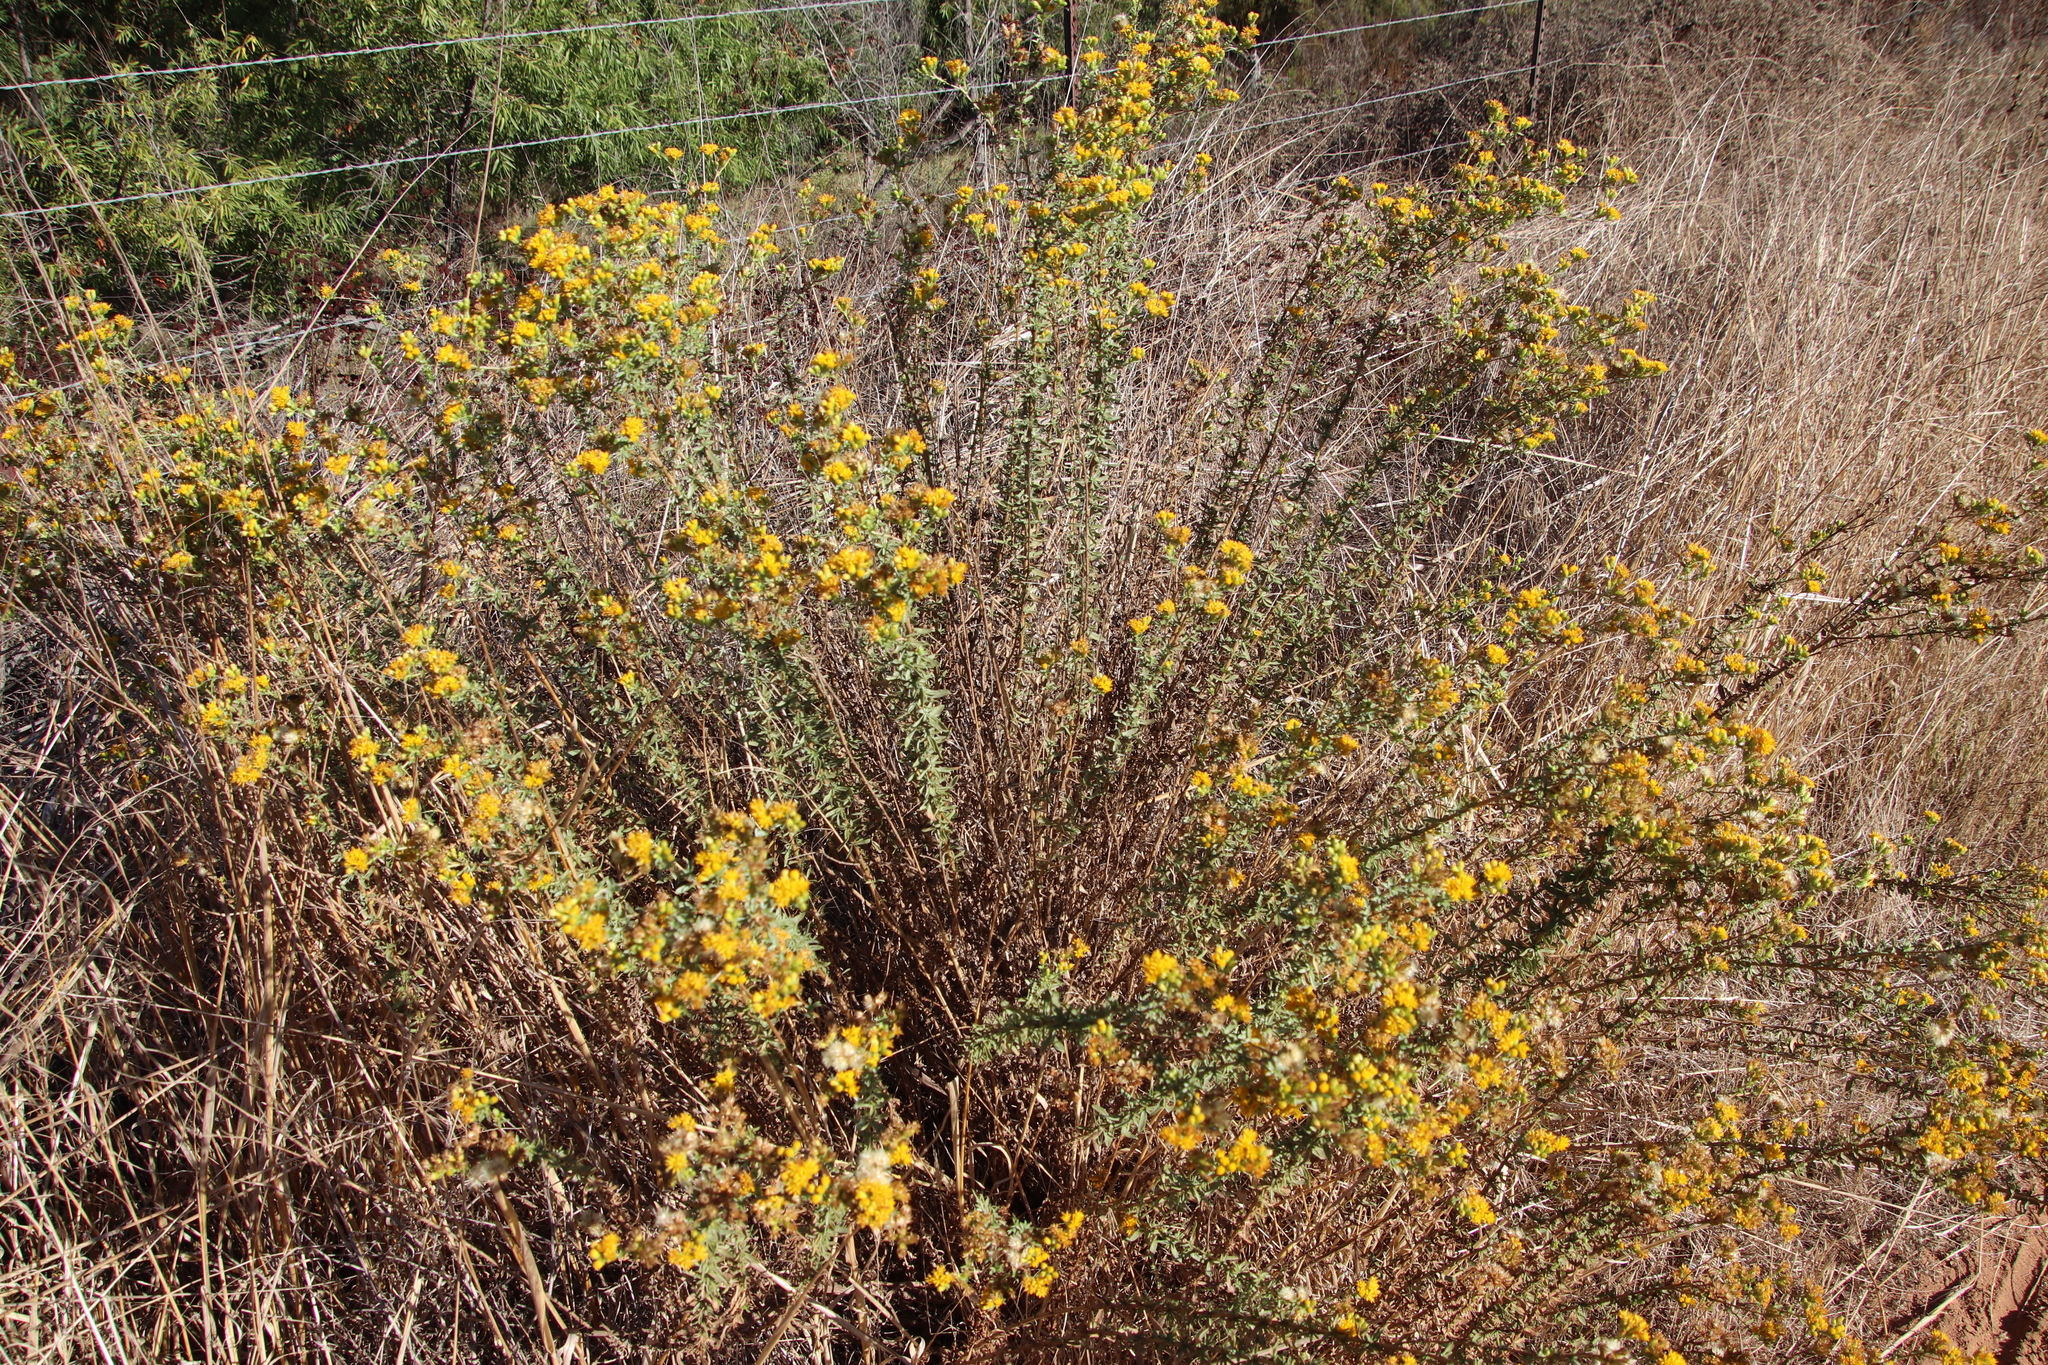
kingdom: Plantae
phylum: Tracheophyta
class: Magnoliopsida
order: Asterales
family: Asteraceae
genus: Isocoma
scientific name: Isocoma menziesii
